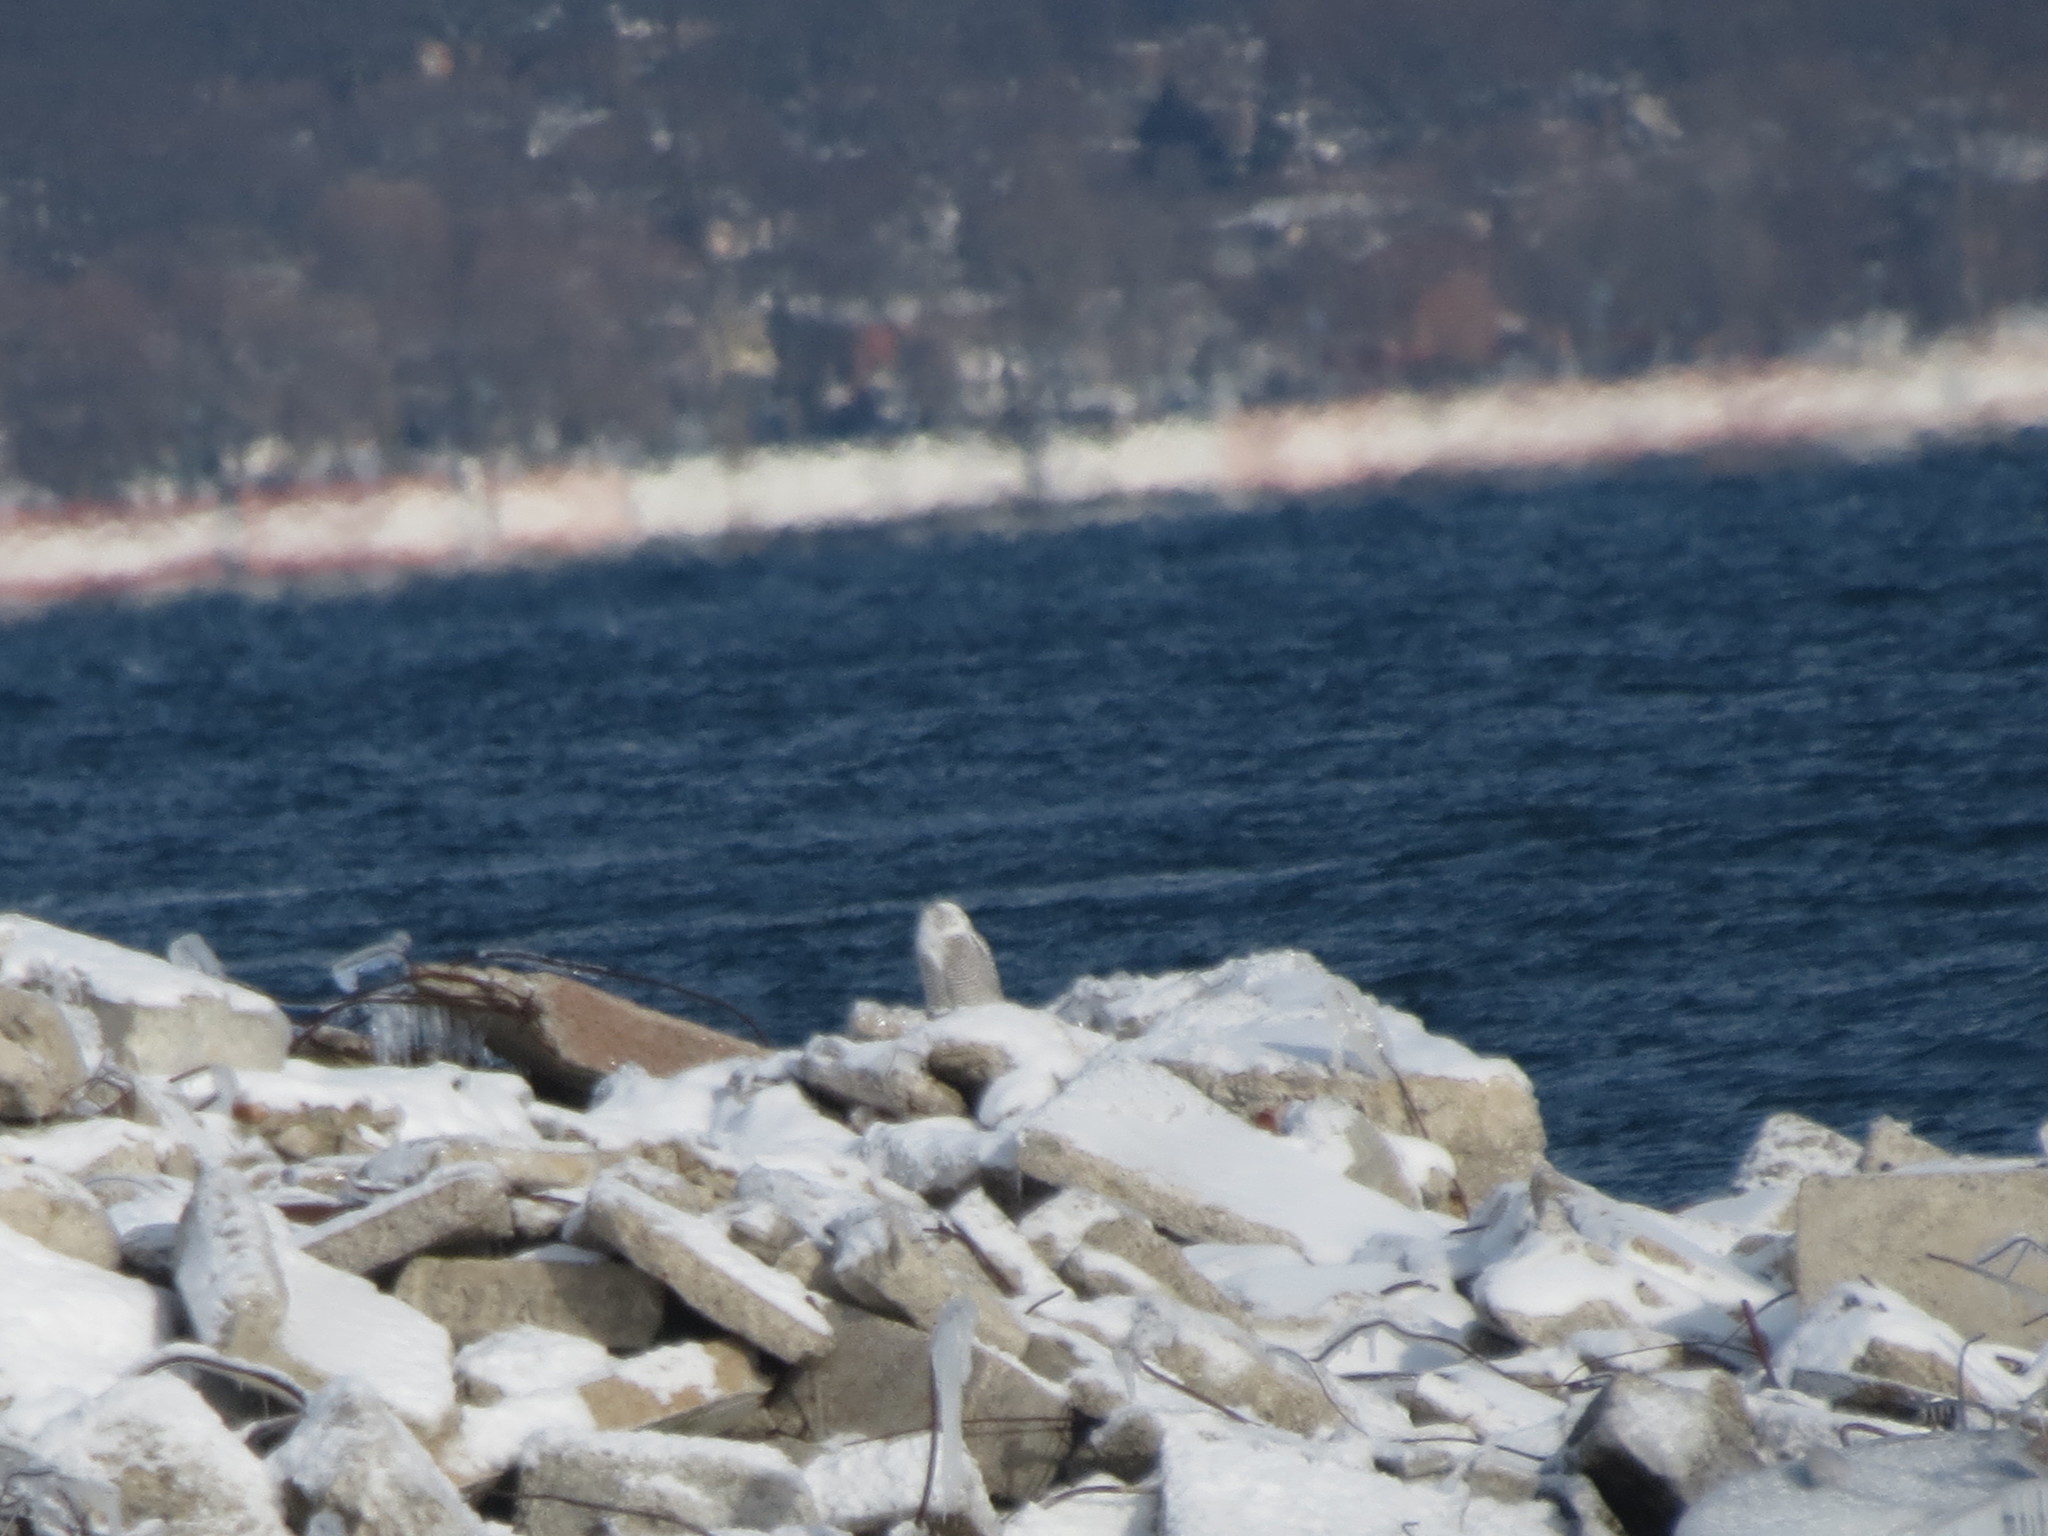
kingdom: Animalia
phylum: Chordata
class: Aves
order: Strigiformes
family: Strigidae
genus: Bubo
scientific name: Bubo scandiacus
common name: Snowy owl
